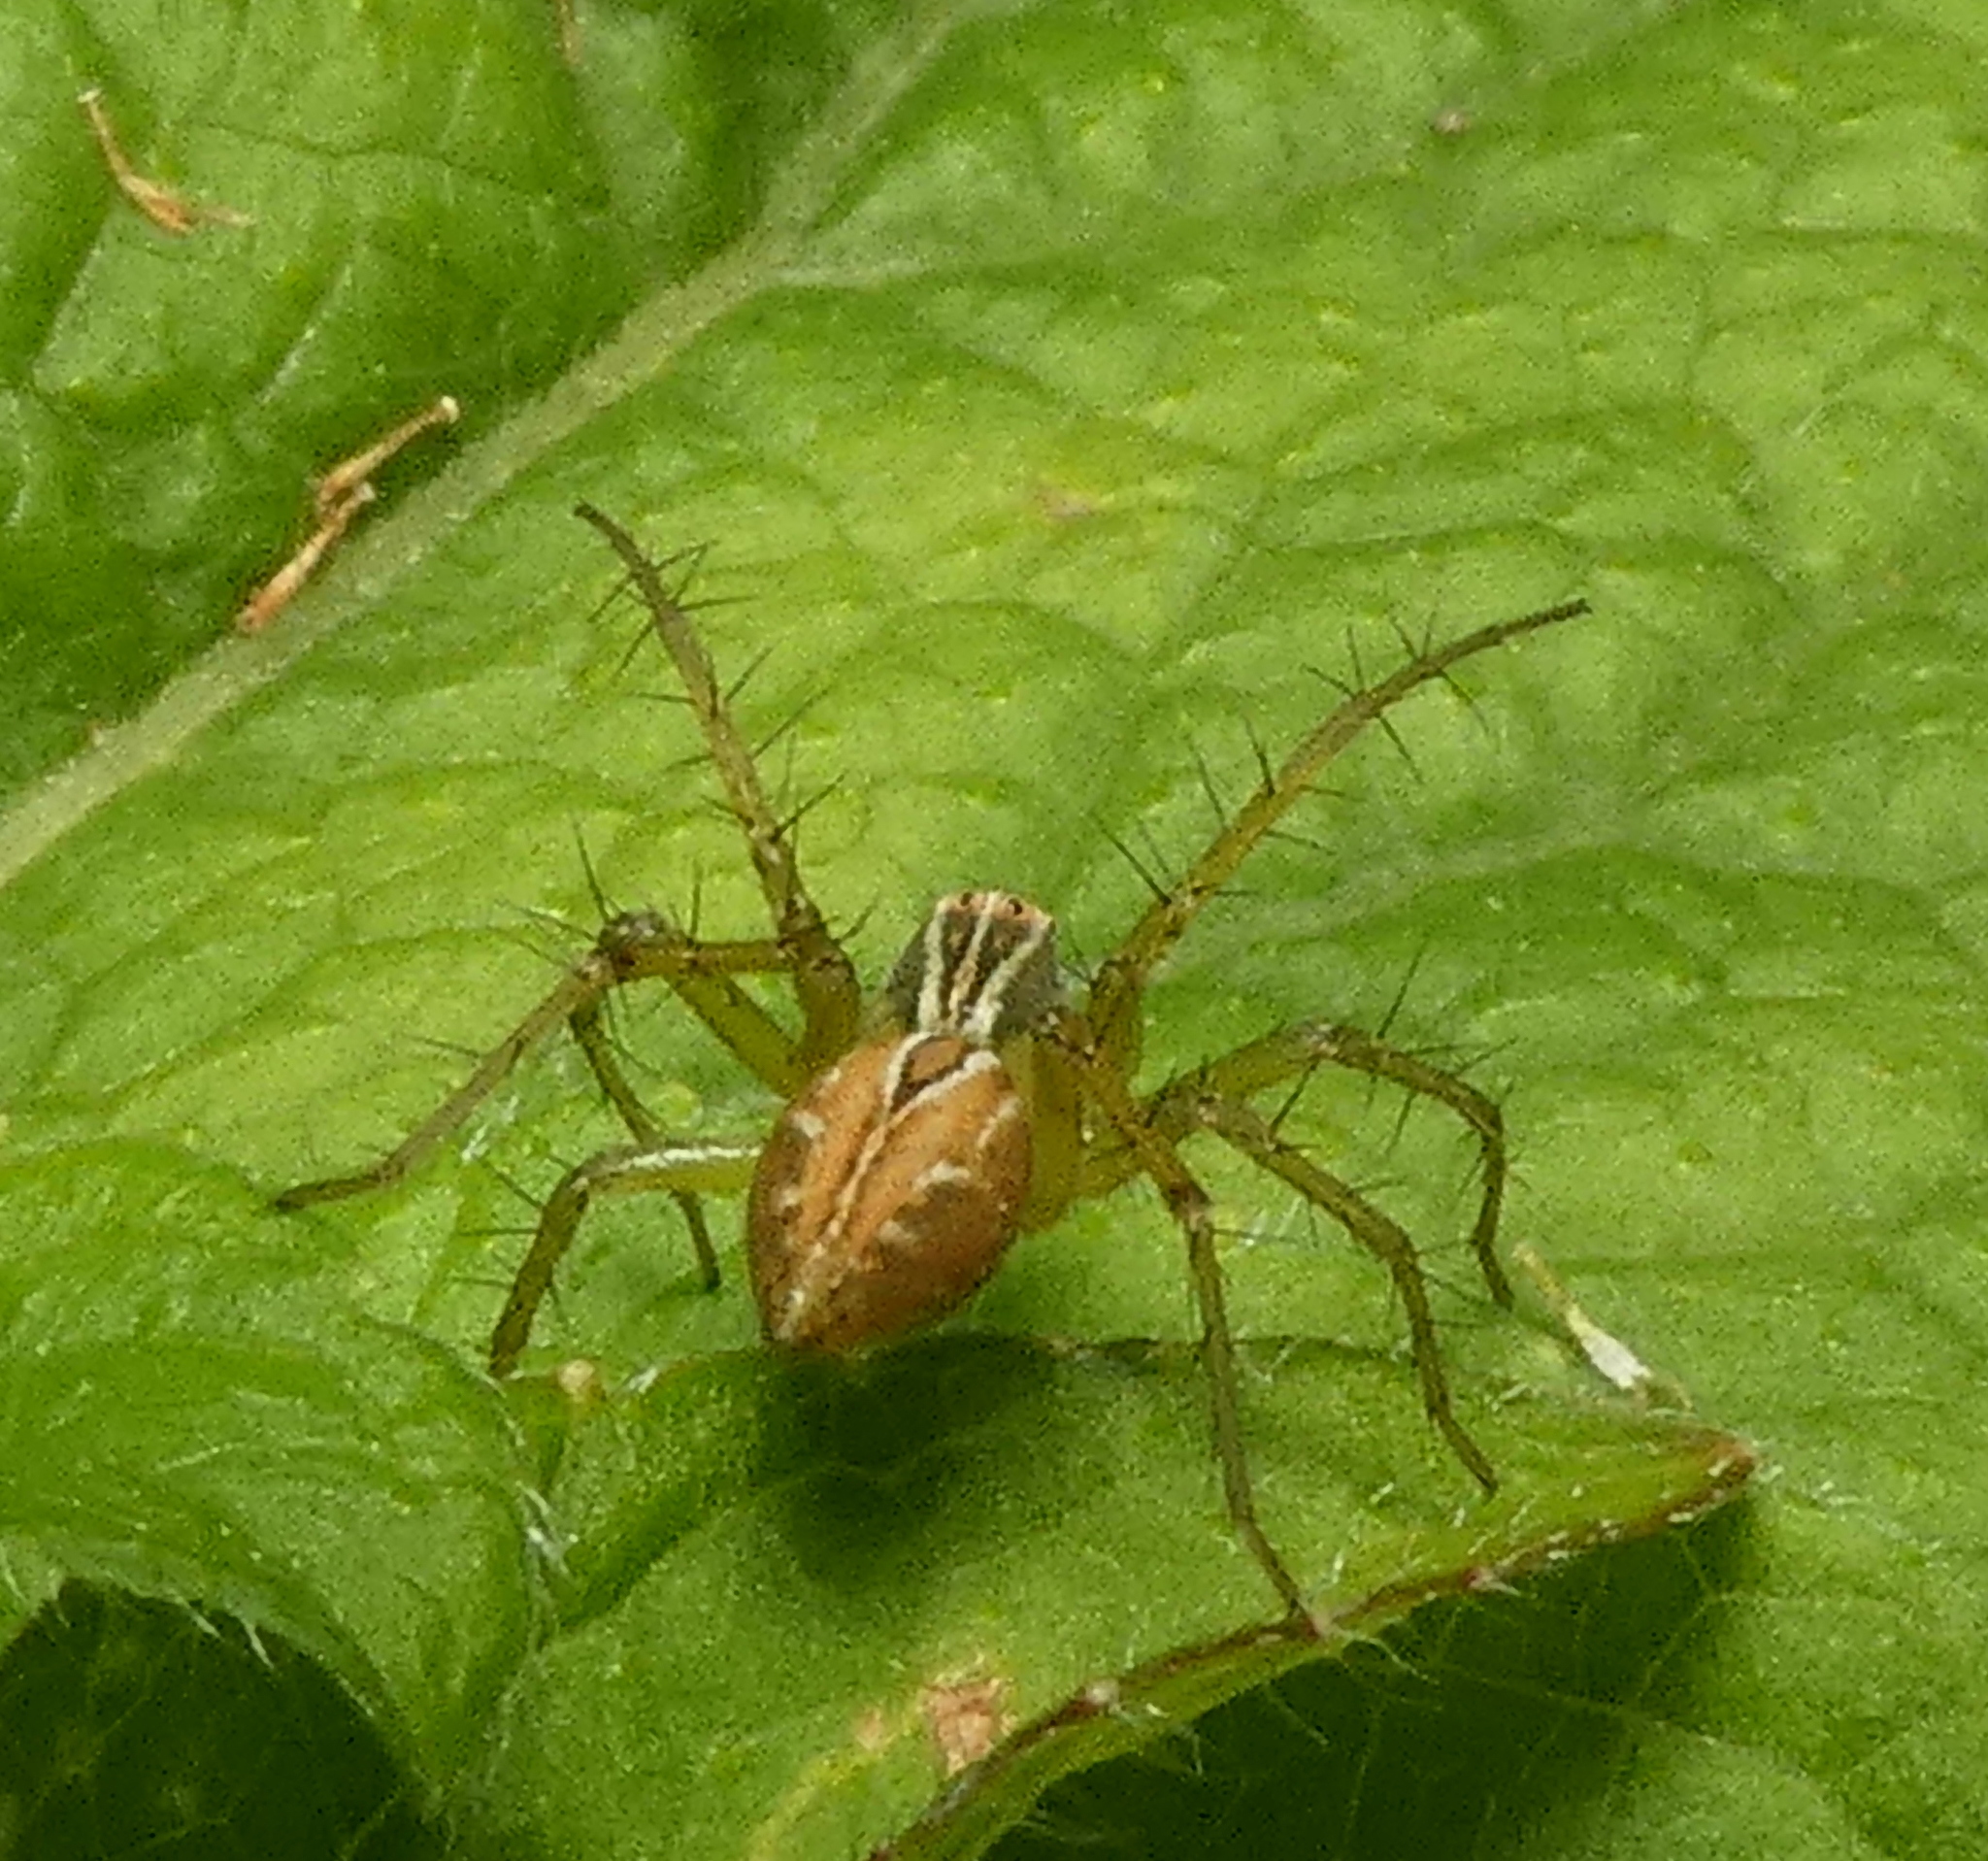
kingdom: Animalia
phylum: Arthropoda
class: Arachnida
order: Araneae
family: Oxyopidae
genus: Oxyopes
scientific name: Oxyopes salticus
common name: Lynx spiders
